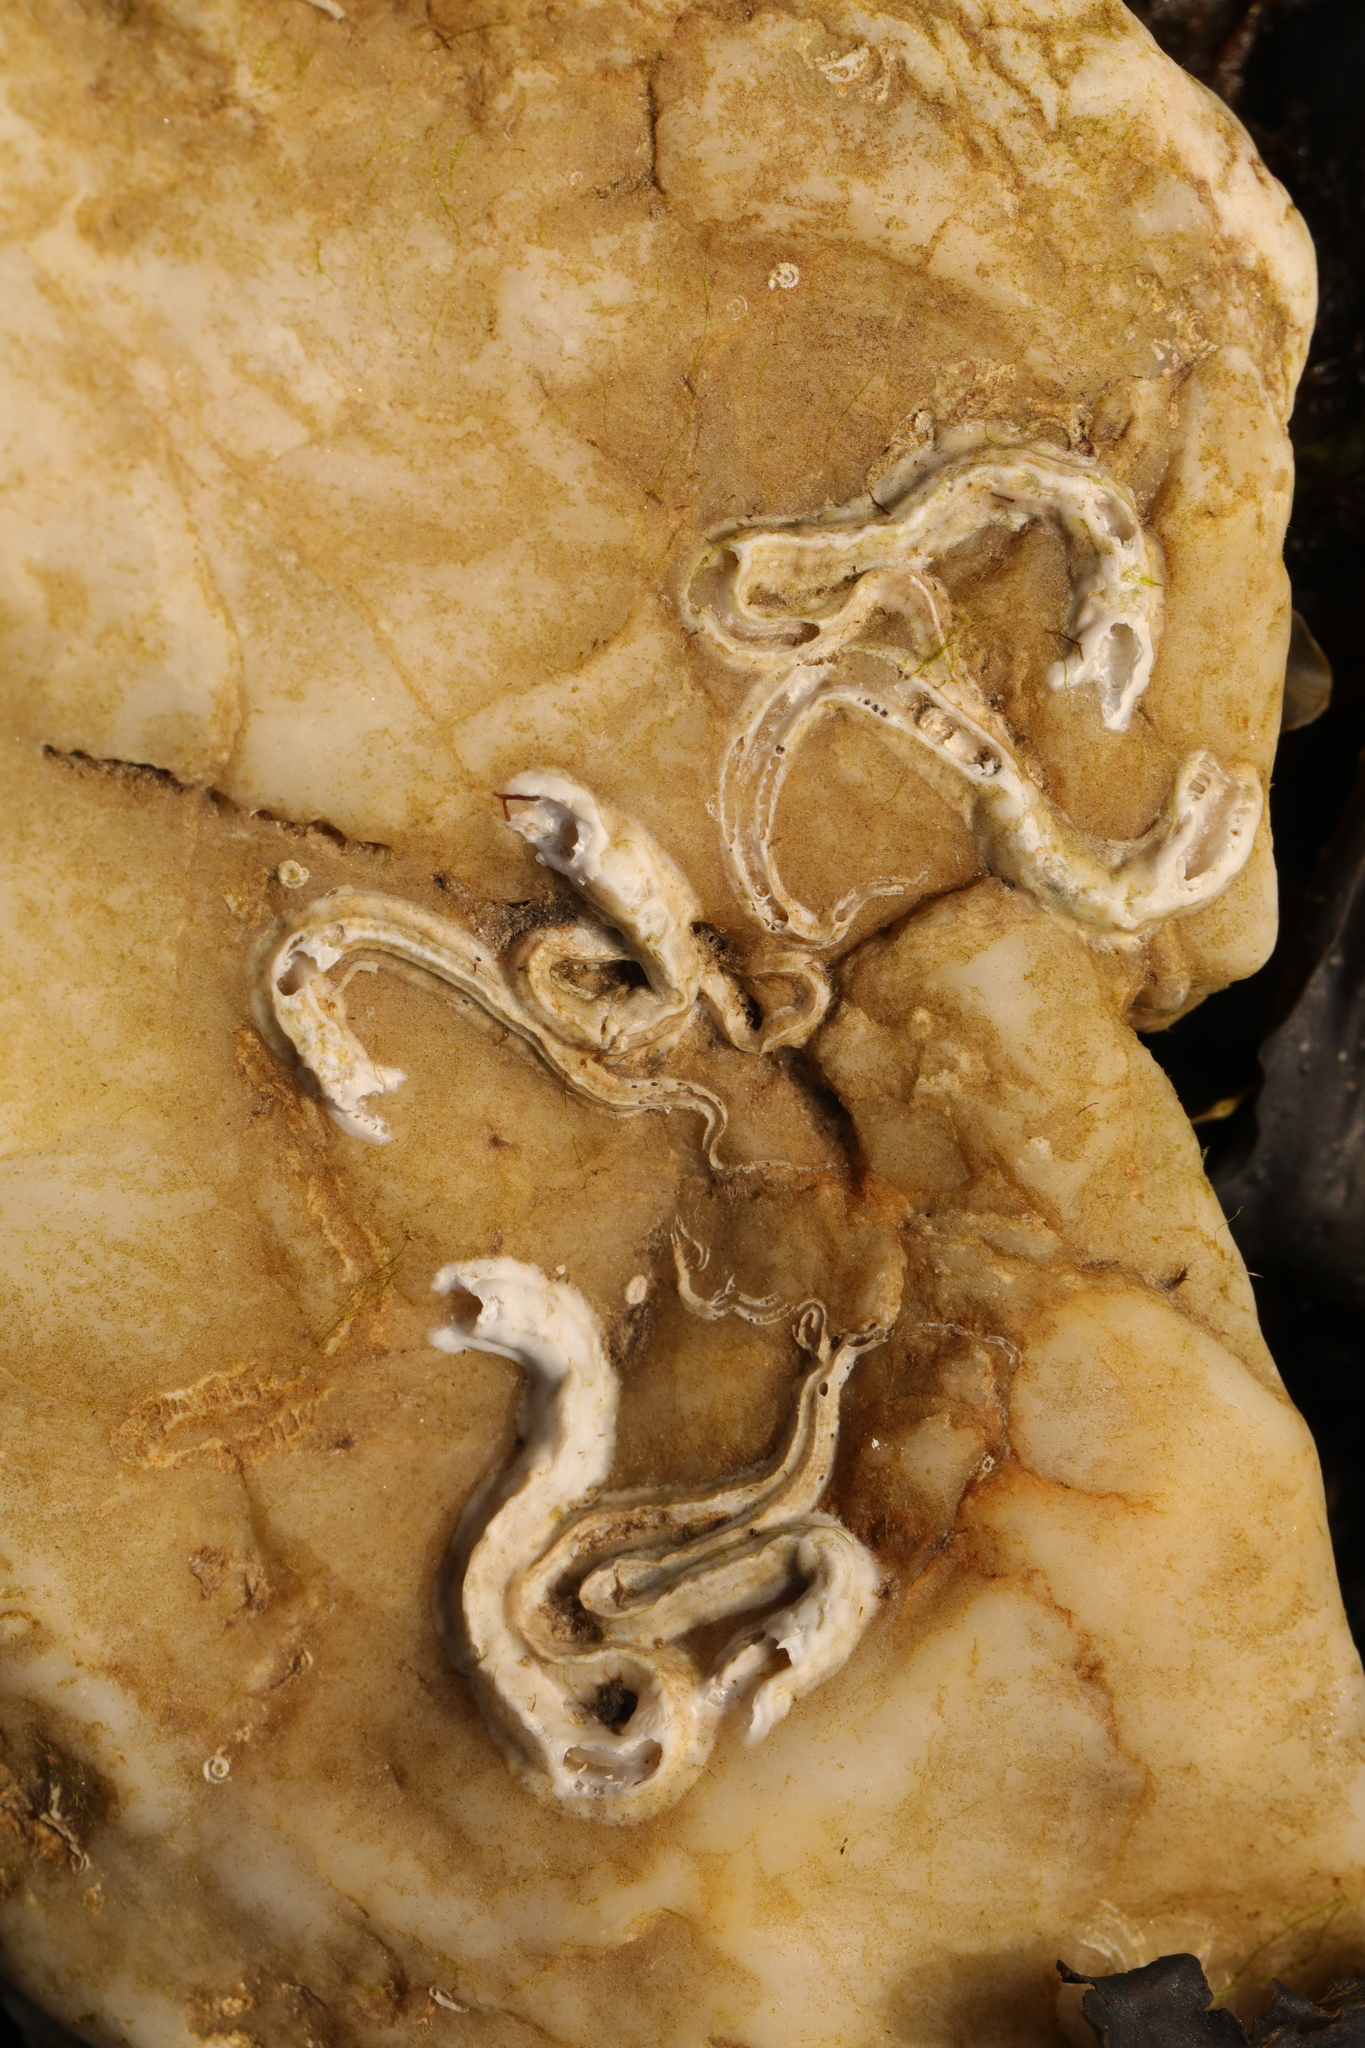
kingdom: Animalia
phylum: Annelida
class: Polychaeta
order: Sabellida
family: Serpulidae
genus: Spirobranchus
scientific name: Spirobranchus lamarcki
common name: Keelworm
